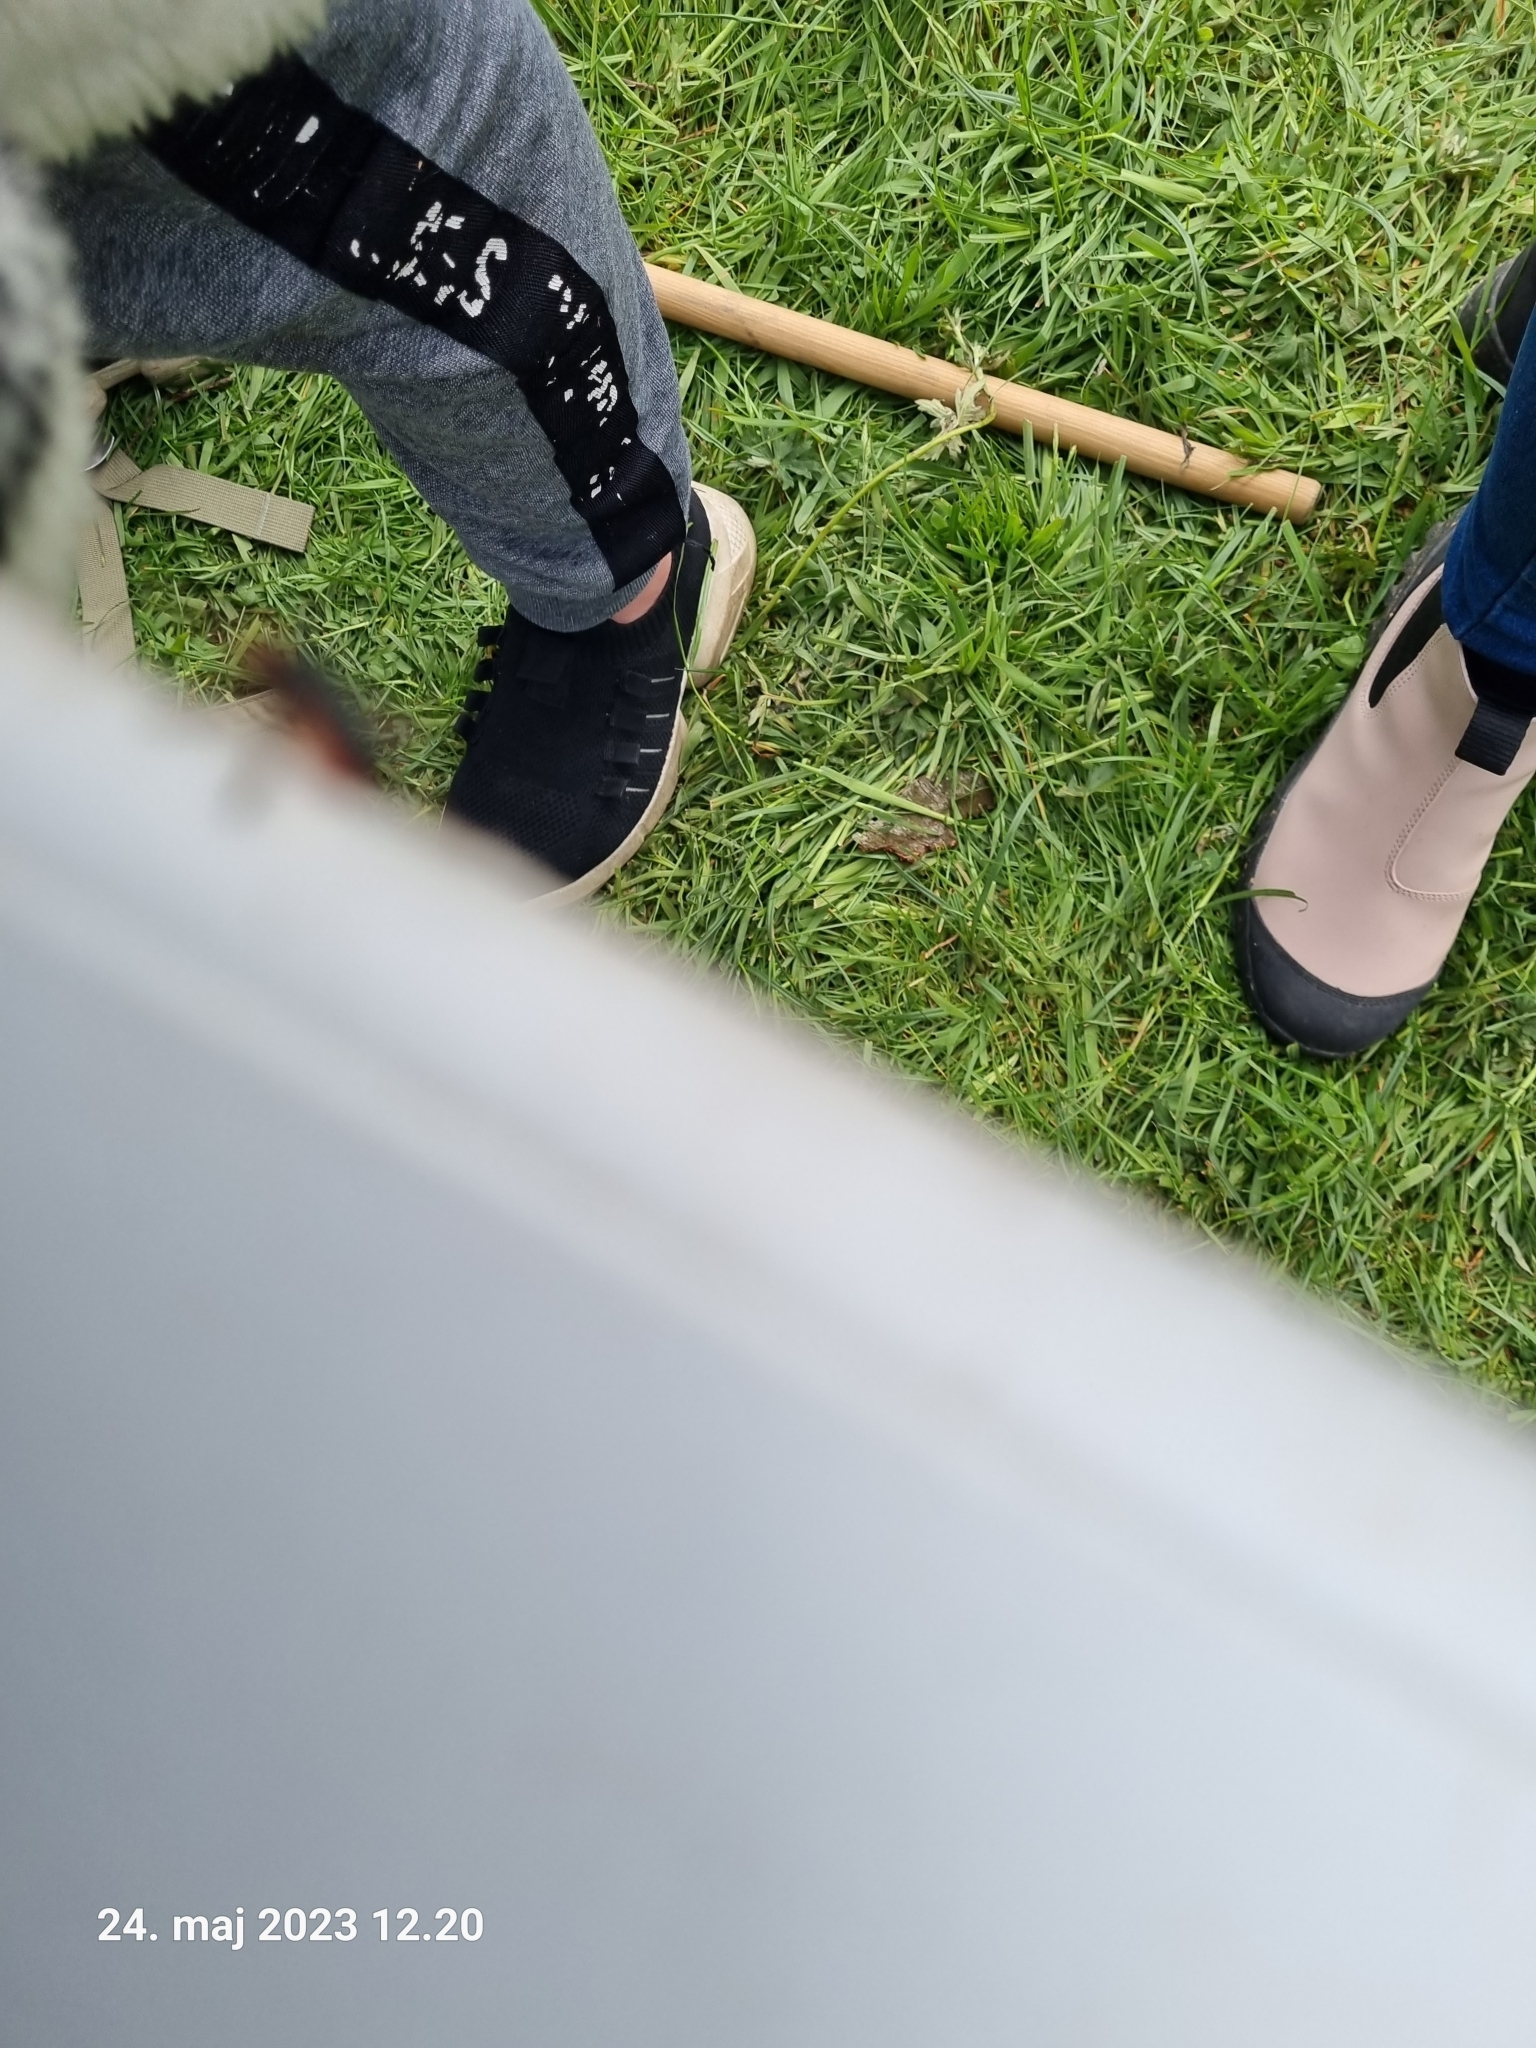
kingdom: Animalia
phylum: Arthropoda
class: Insecta
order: Coleoptera
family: Cantharidae
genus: Cantharis
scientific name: Cantharis rustica
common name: Soldier beetle
